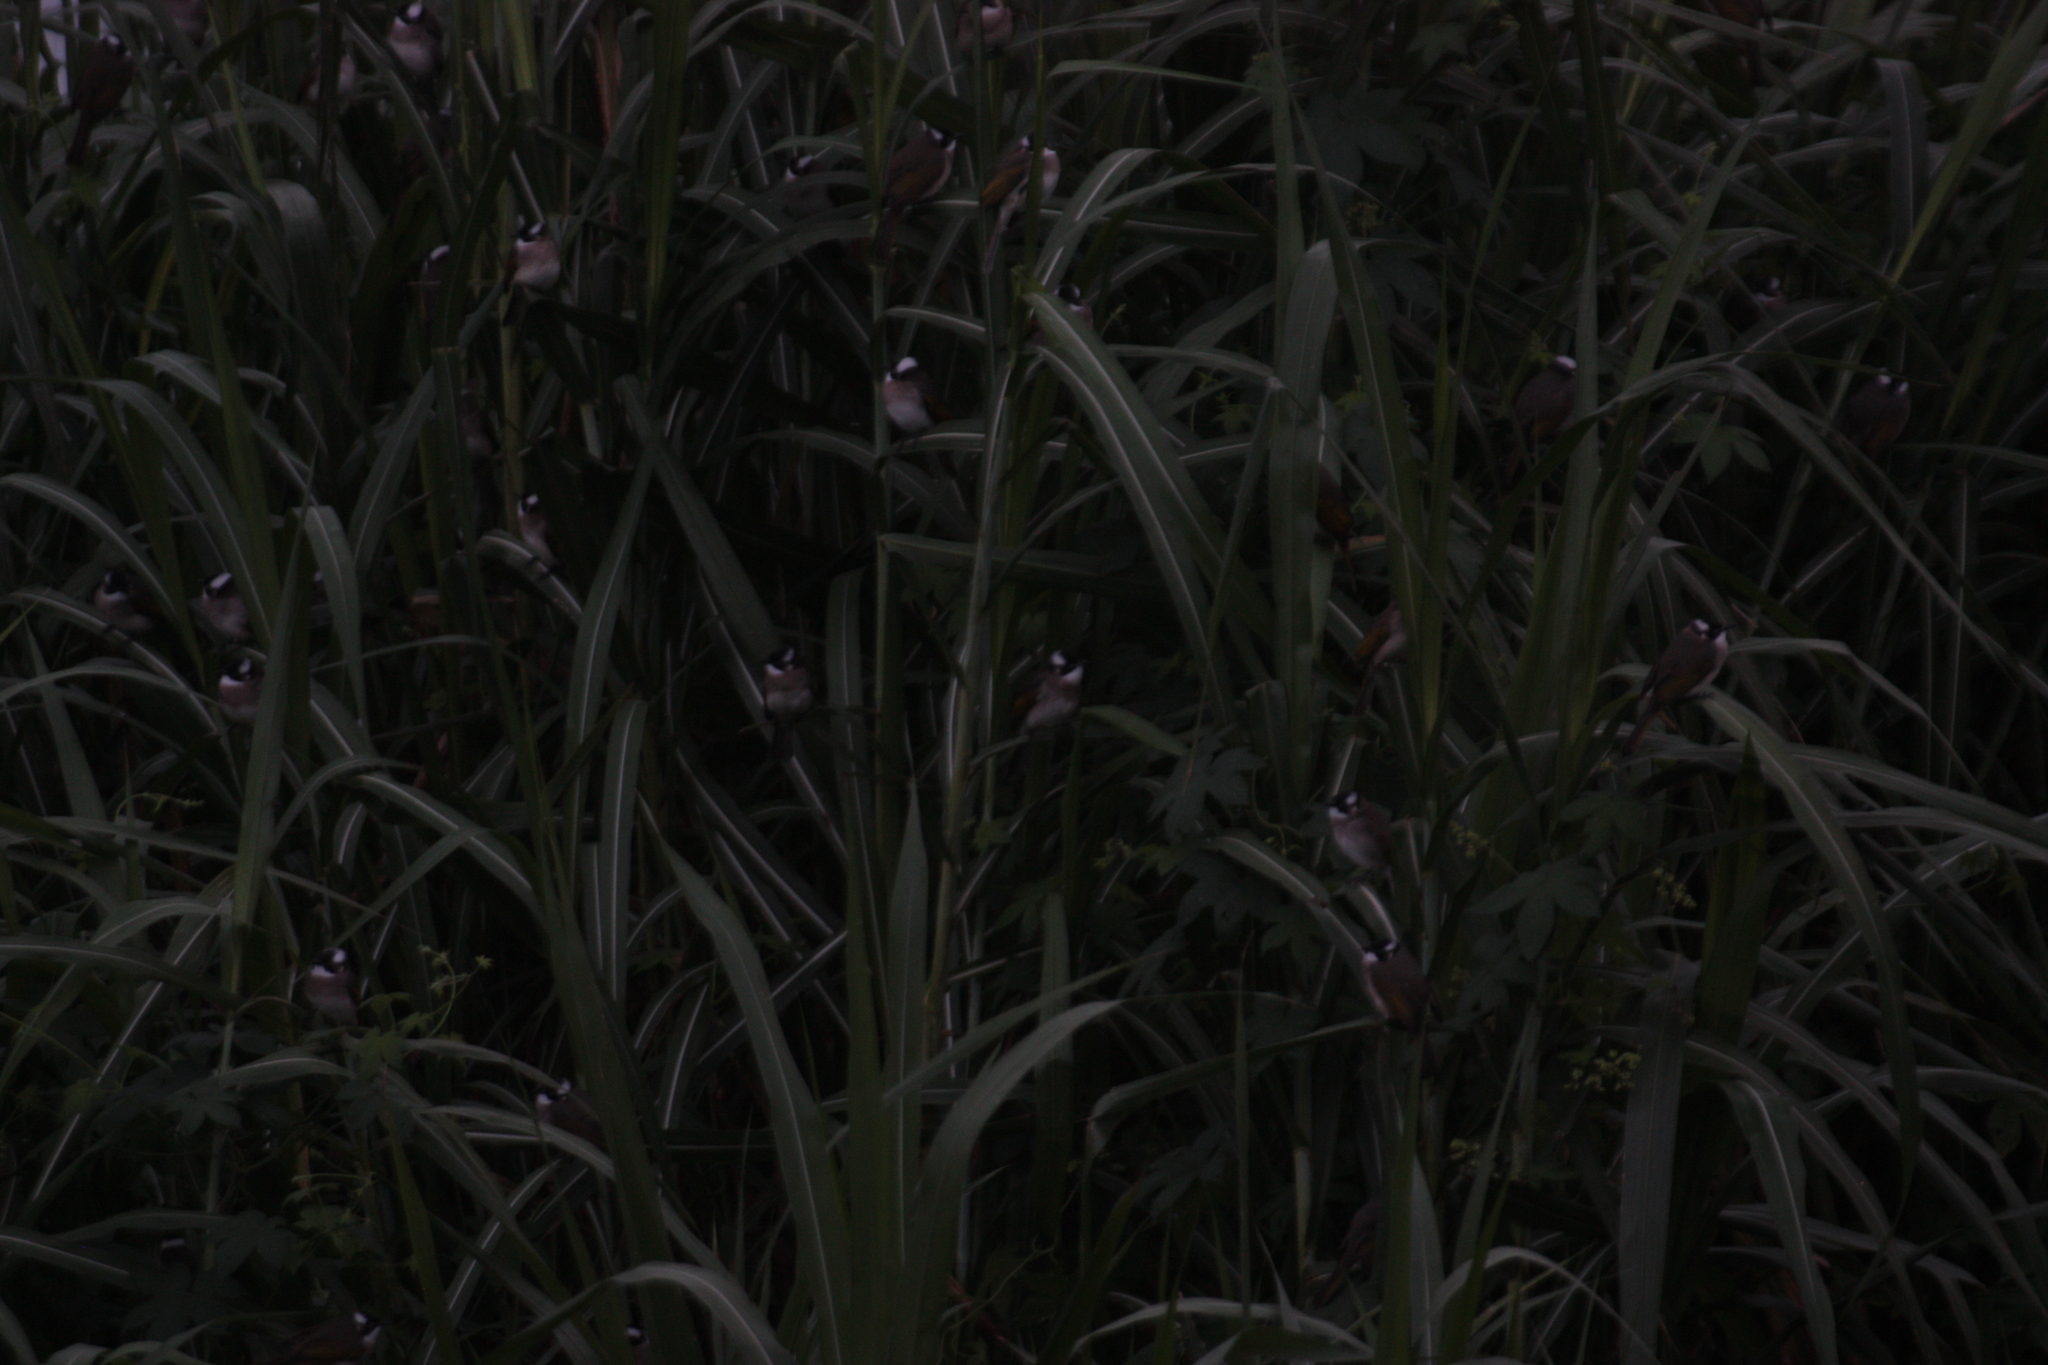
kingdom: Animalia
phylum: Chordata
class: Aves
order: Passeriformes
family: Pycnonotidae
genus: Pycnonotus
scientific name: Pycnonotus sinensis
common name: Light-vented bulbul
